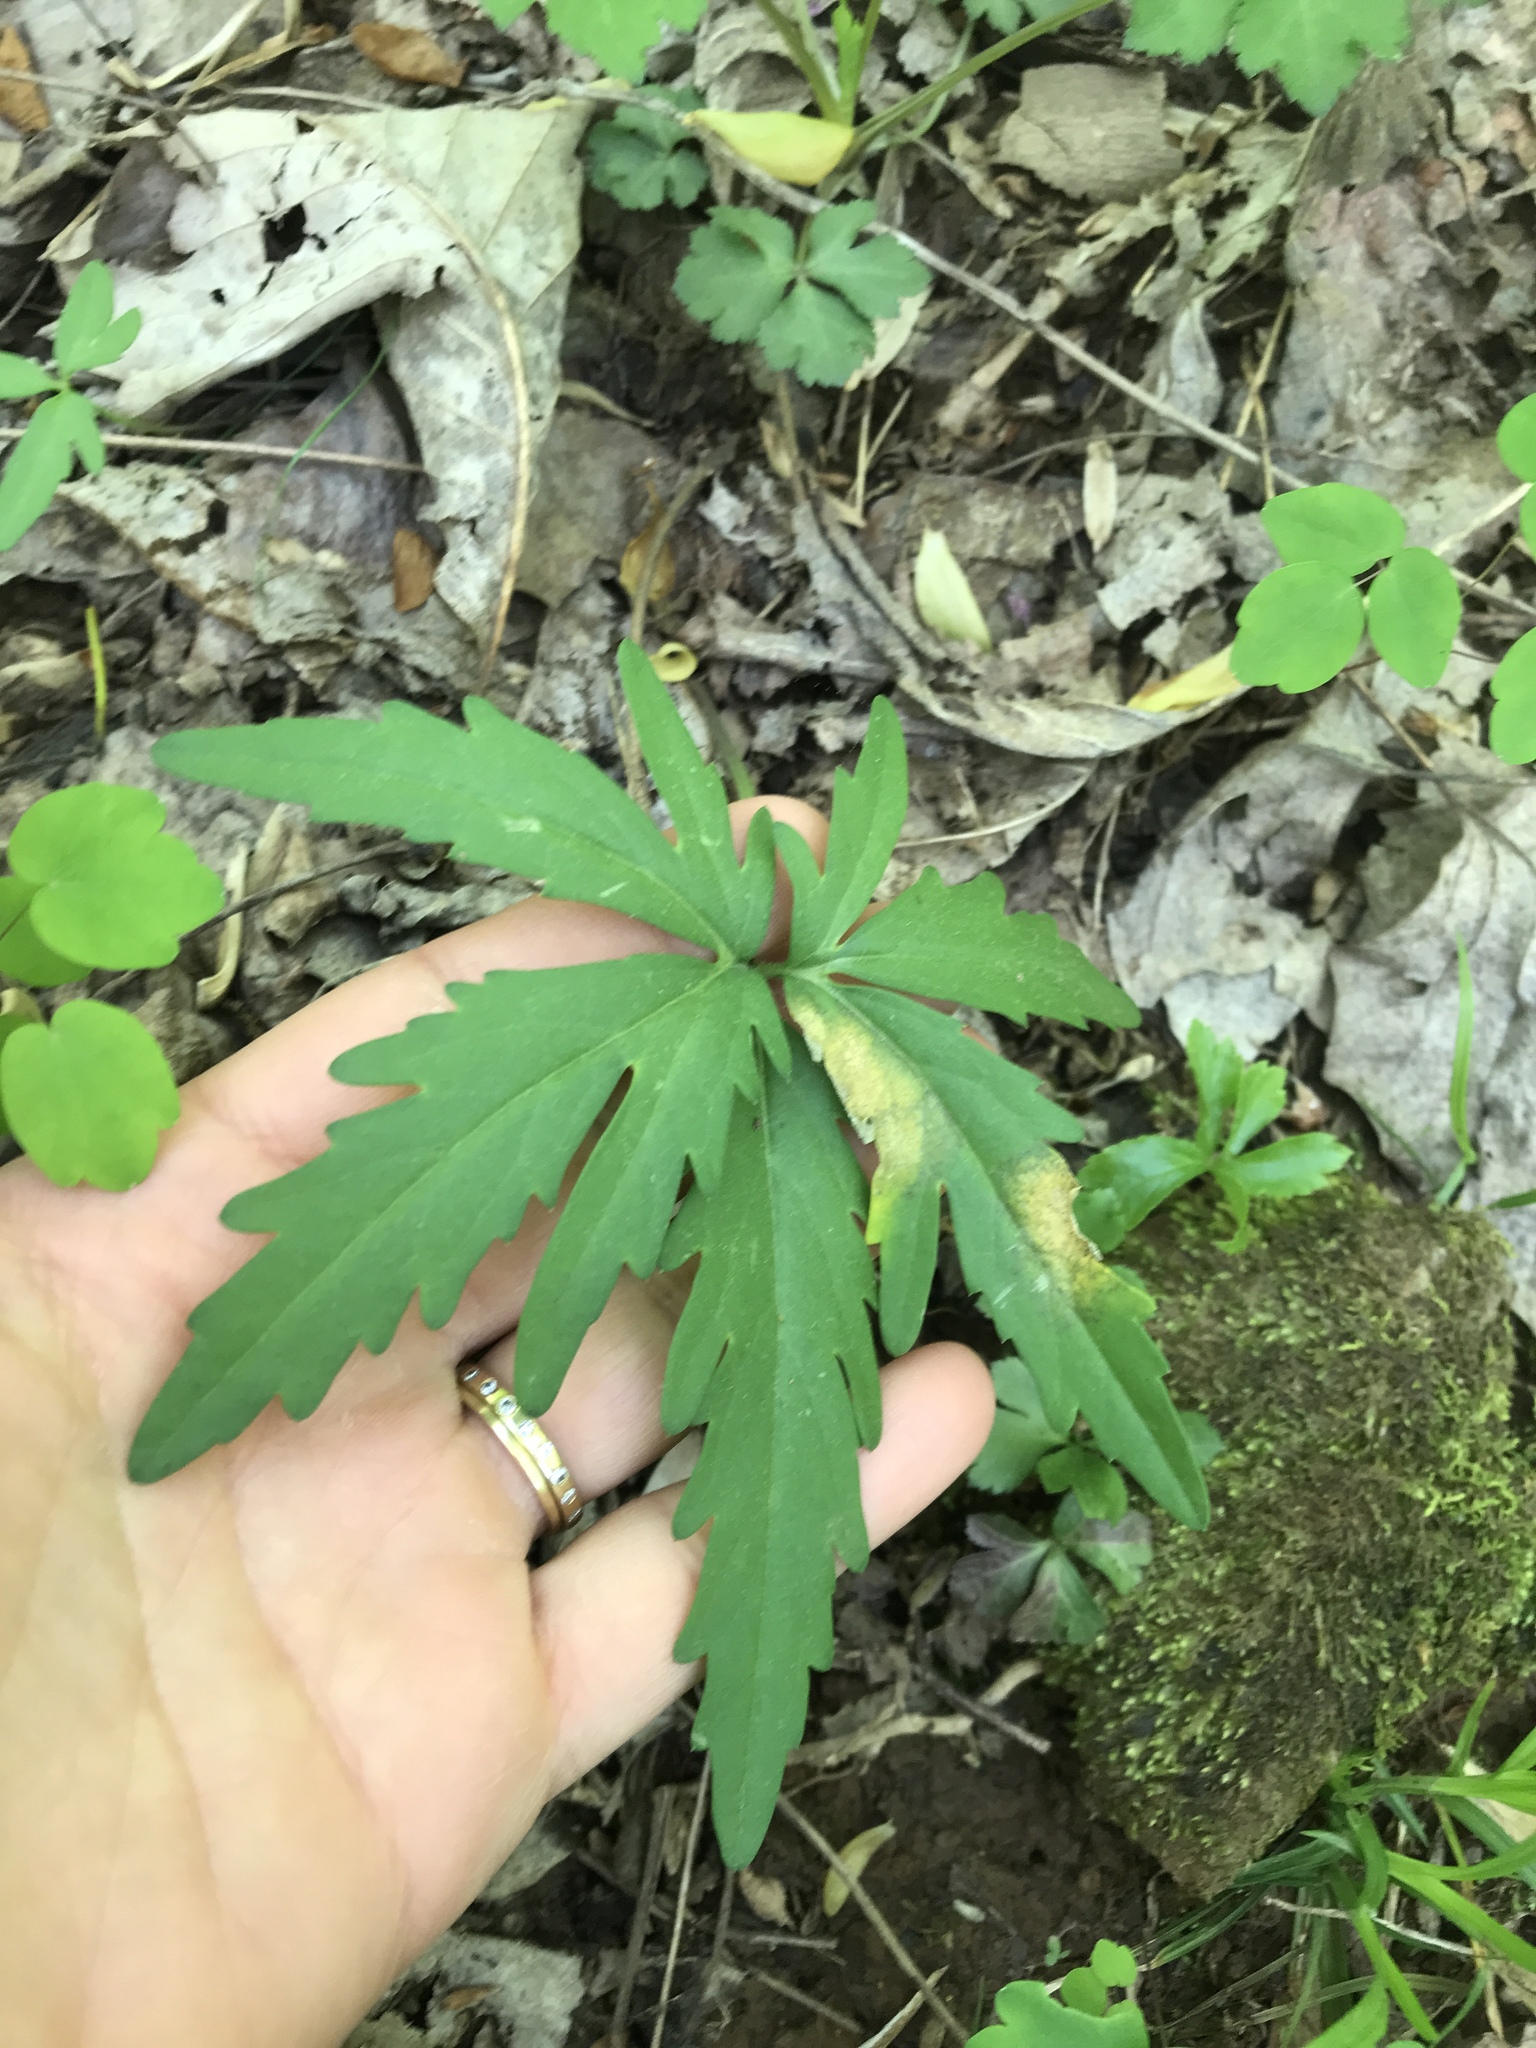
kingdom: Plantae
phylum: Tracheophyta
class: Magnoliopsida
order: Brassicales
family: Brassicaceae
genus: Cardamine
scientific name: Cardamine concatenata
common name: Cut-leaf toothcup
